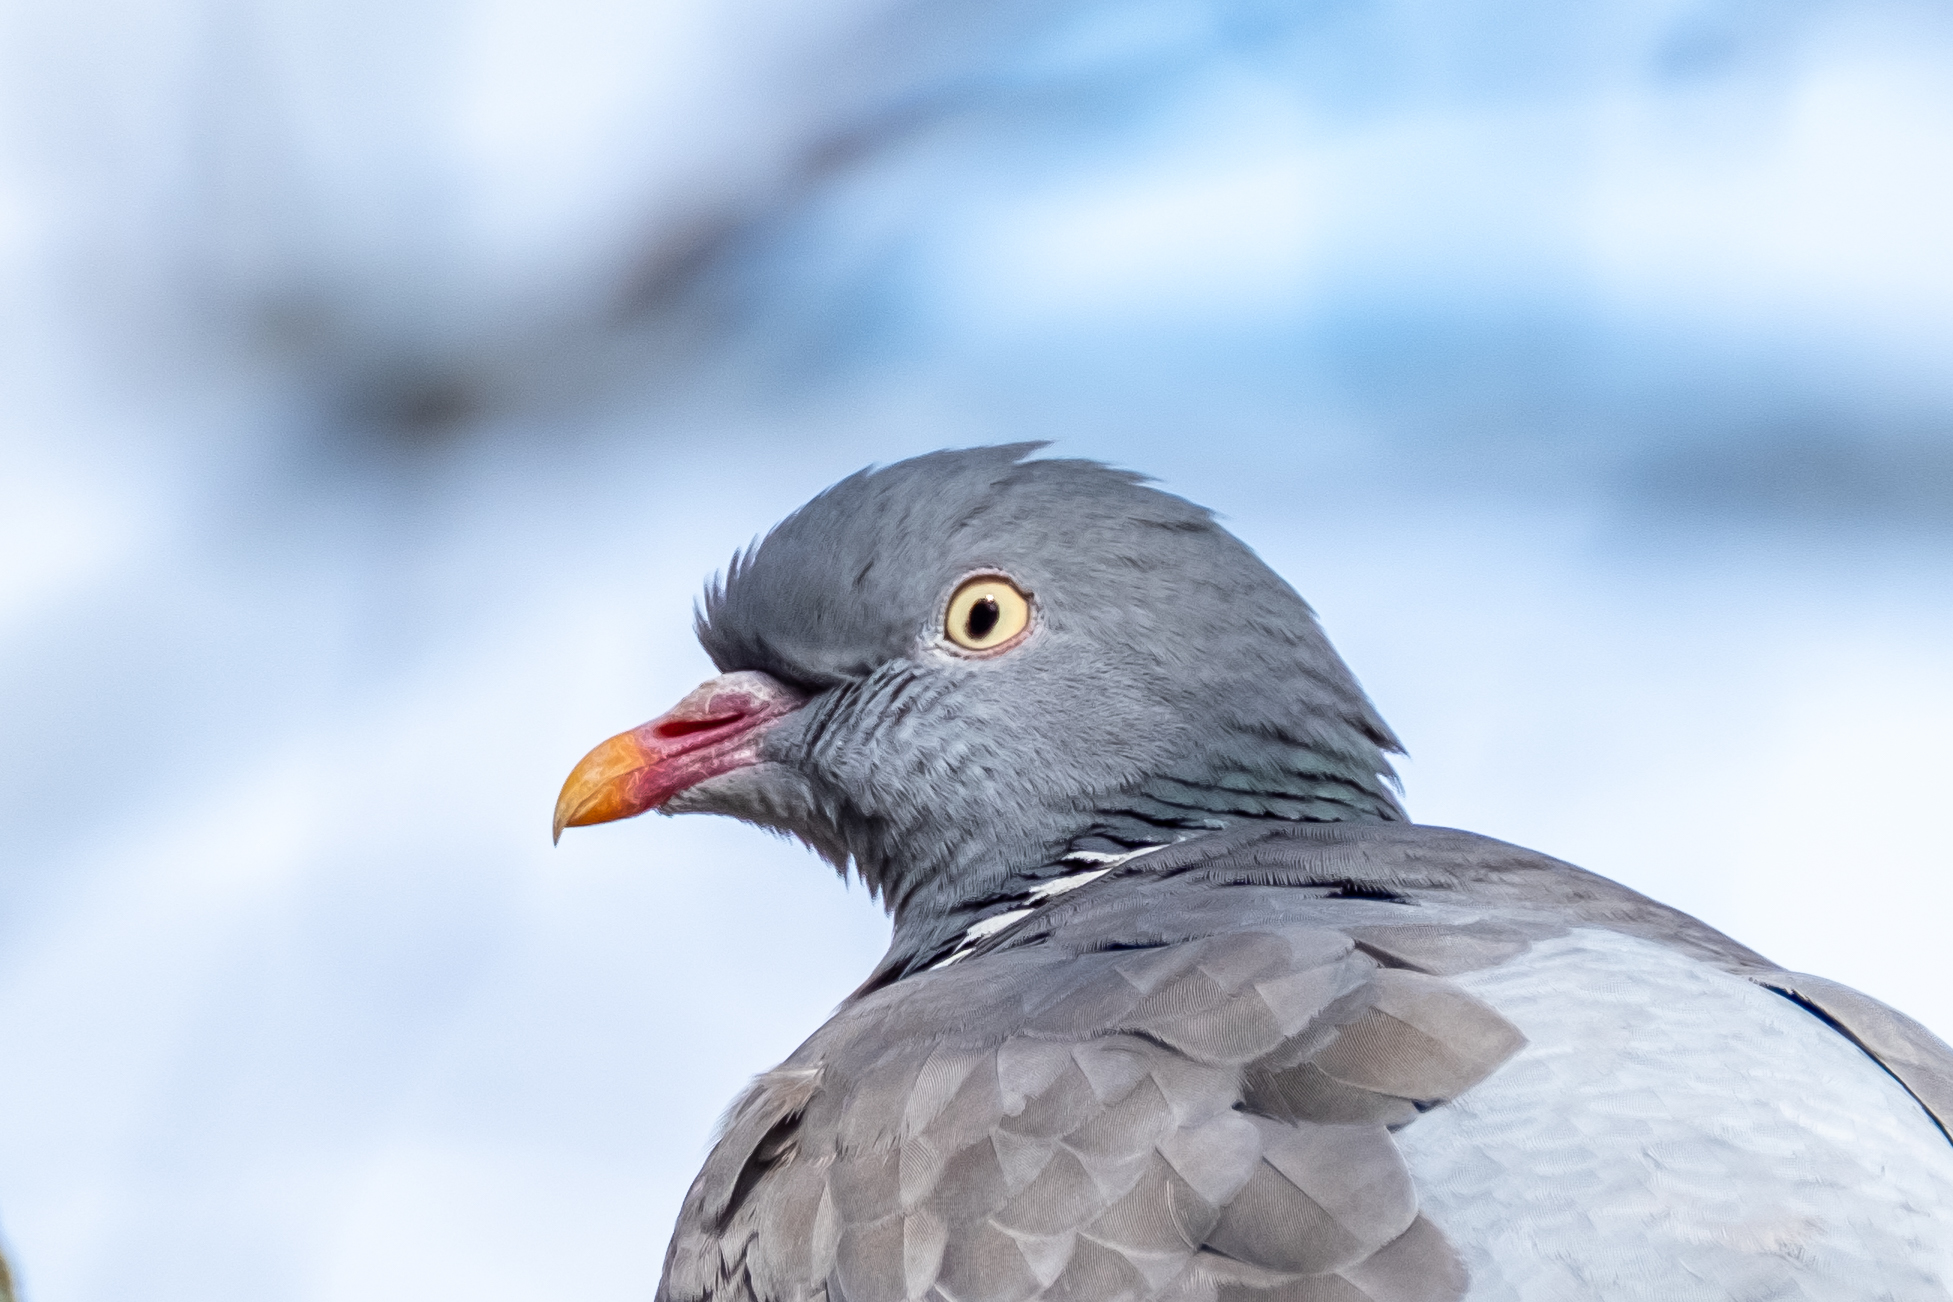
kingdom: Animalia
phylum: Chordata
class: Aves
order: Columbiformes
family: Columbidae
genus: Columba
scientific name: Columba palumbus
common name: Common wood pigeon
